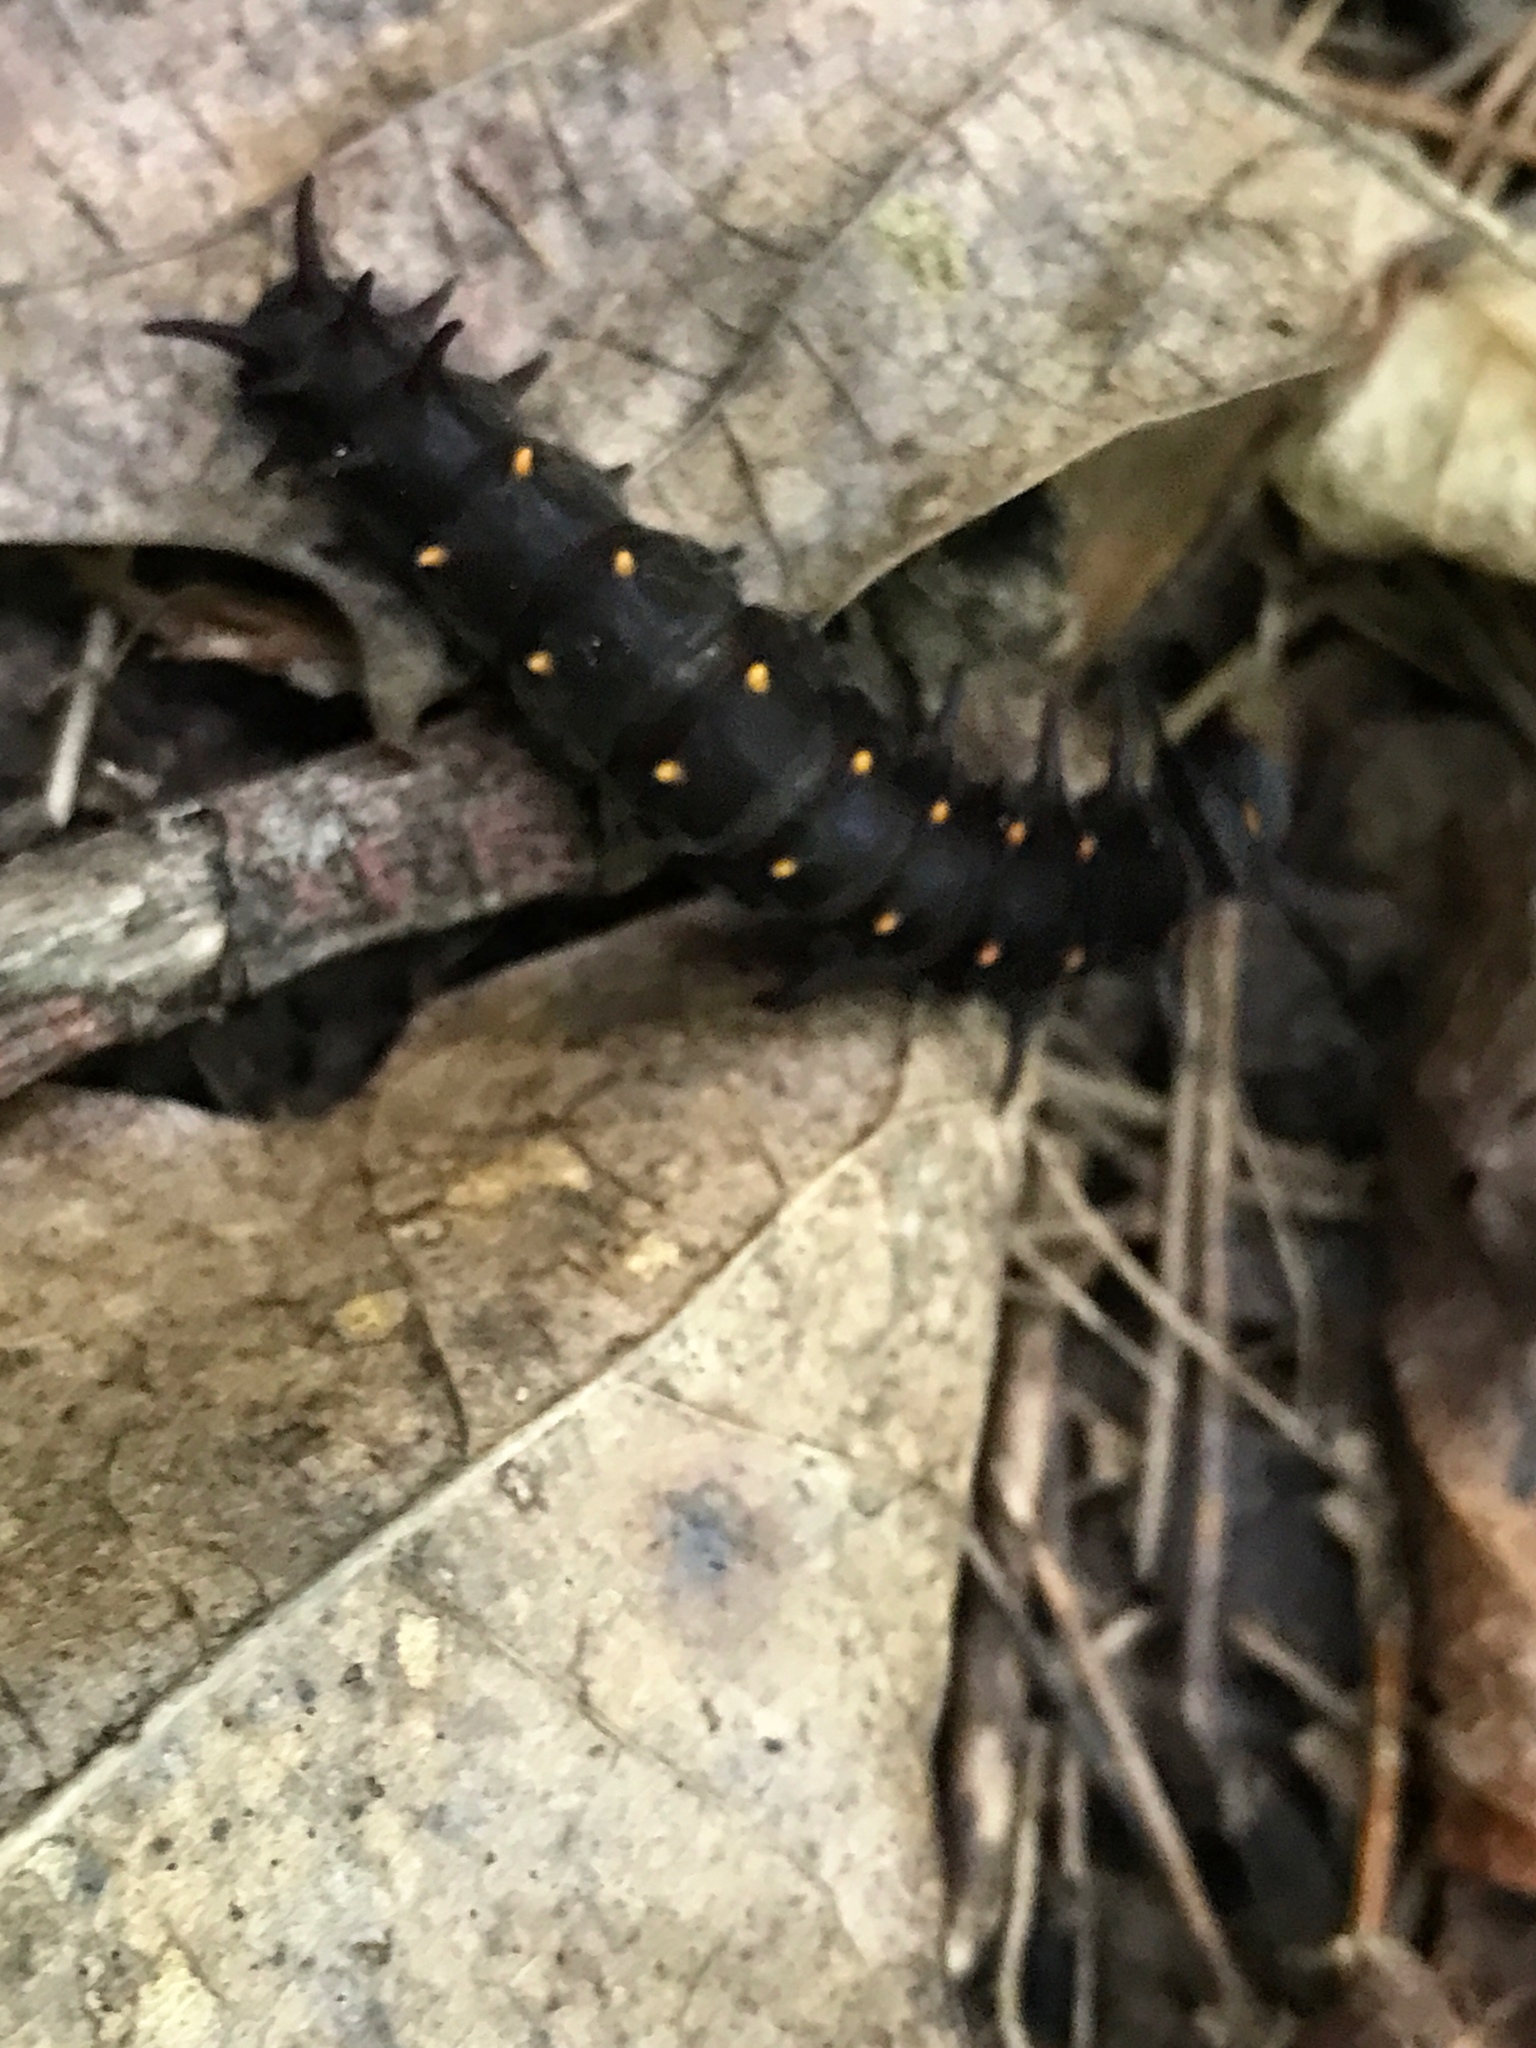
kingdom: Animalia
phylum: Arthropoda
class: Insecta
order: Lepidoptera
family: Papilionidae
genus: Battus
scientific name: Battus philenor
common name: Pipevine swallowtail
